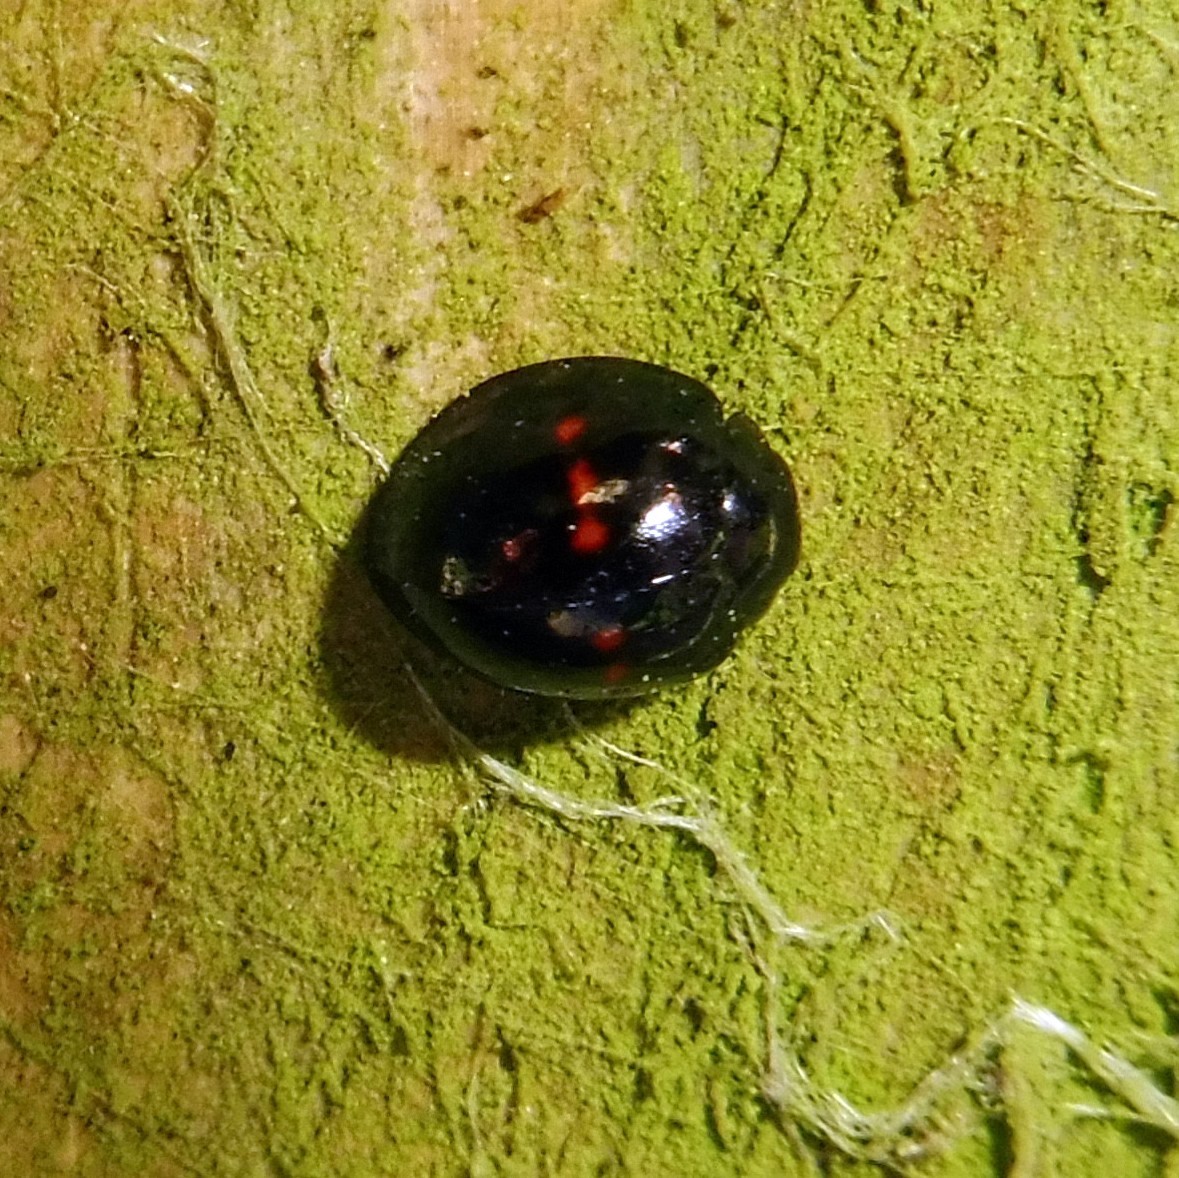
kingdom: Animalia
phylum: Arthropoda
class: Insecta
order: Coleoptera
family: Coccinellidae
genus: Chilocorus
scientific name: Chilocorus bipustulatus
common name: Heather ladybird
